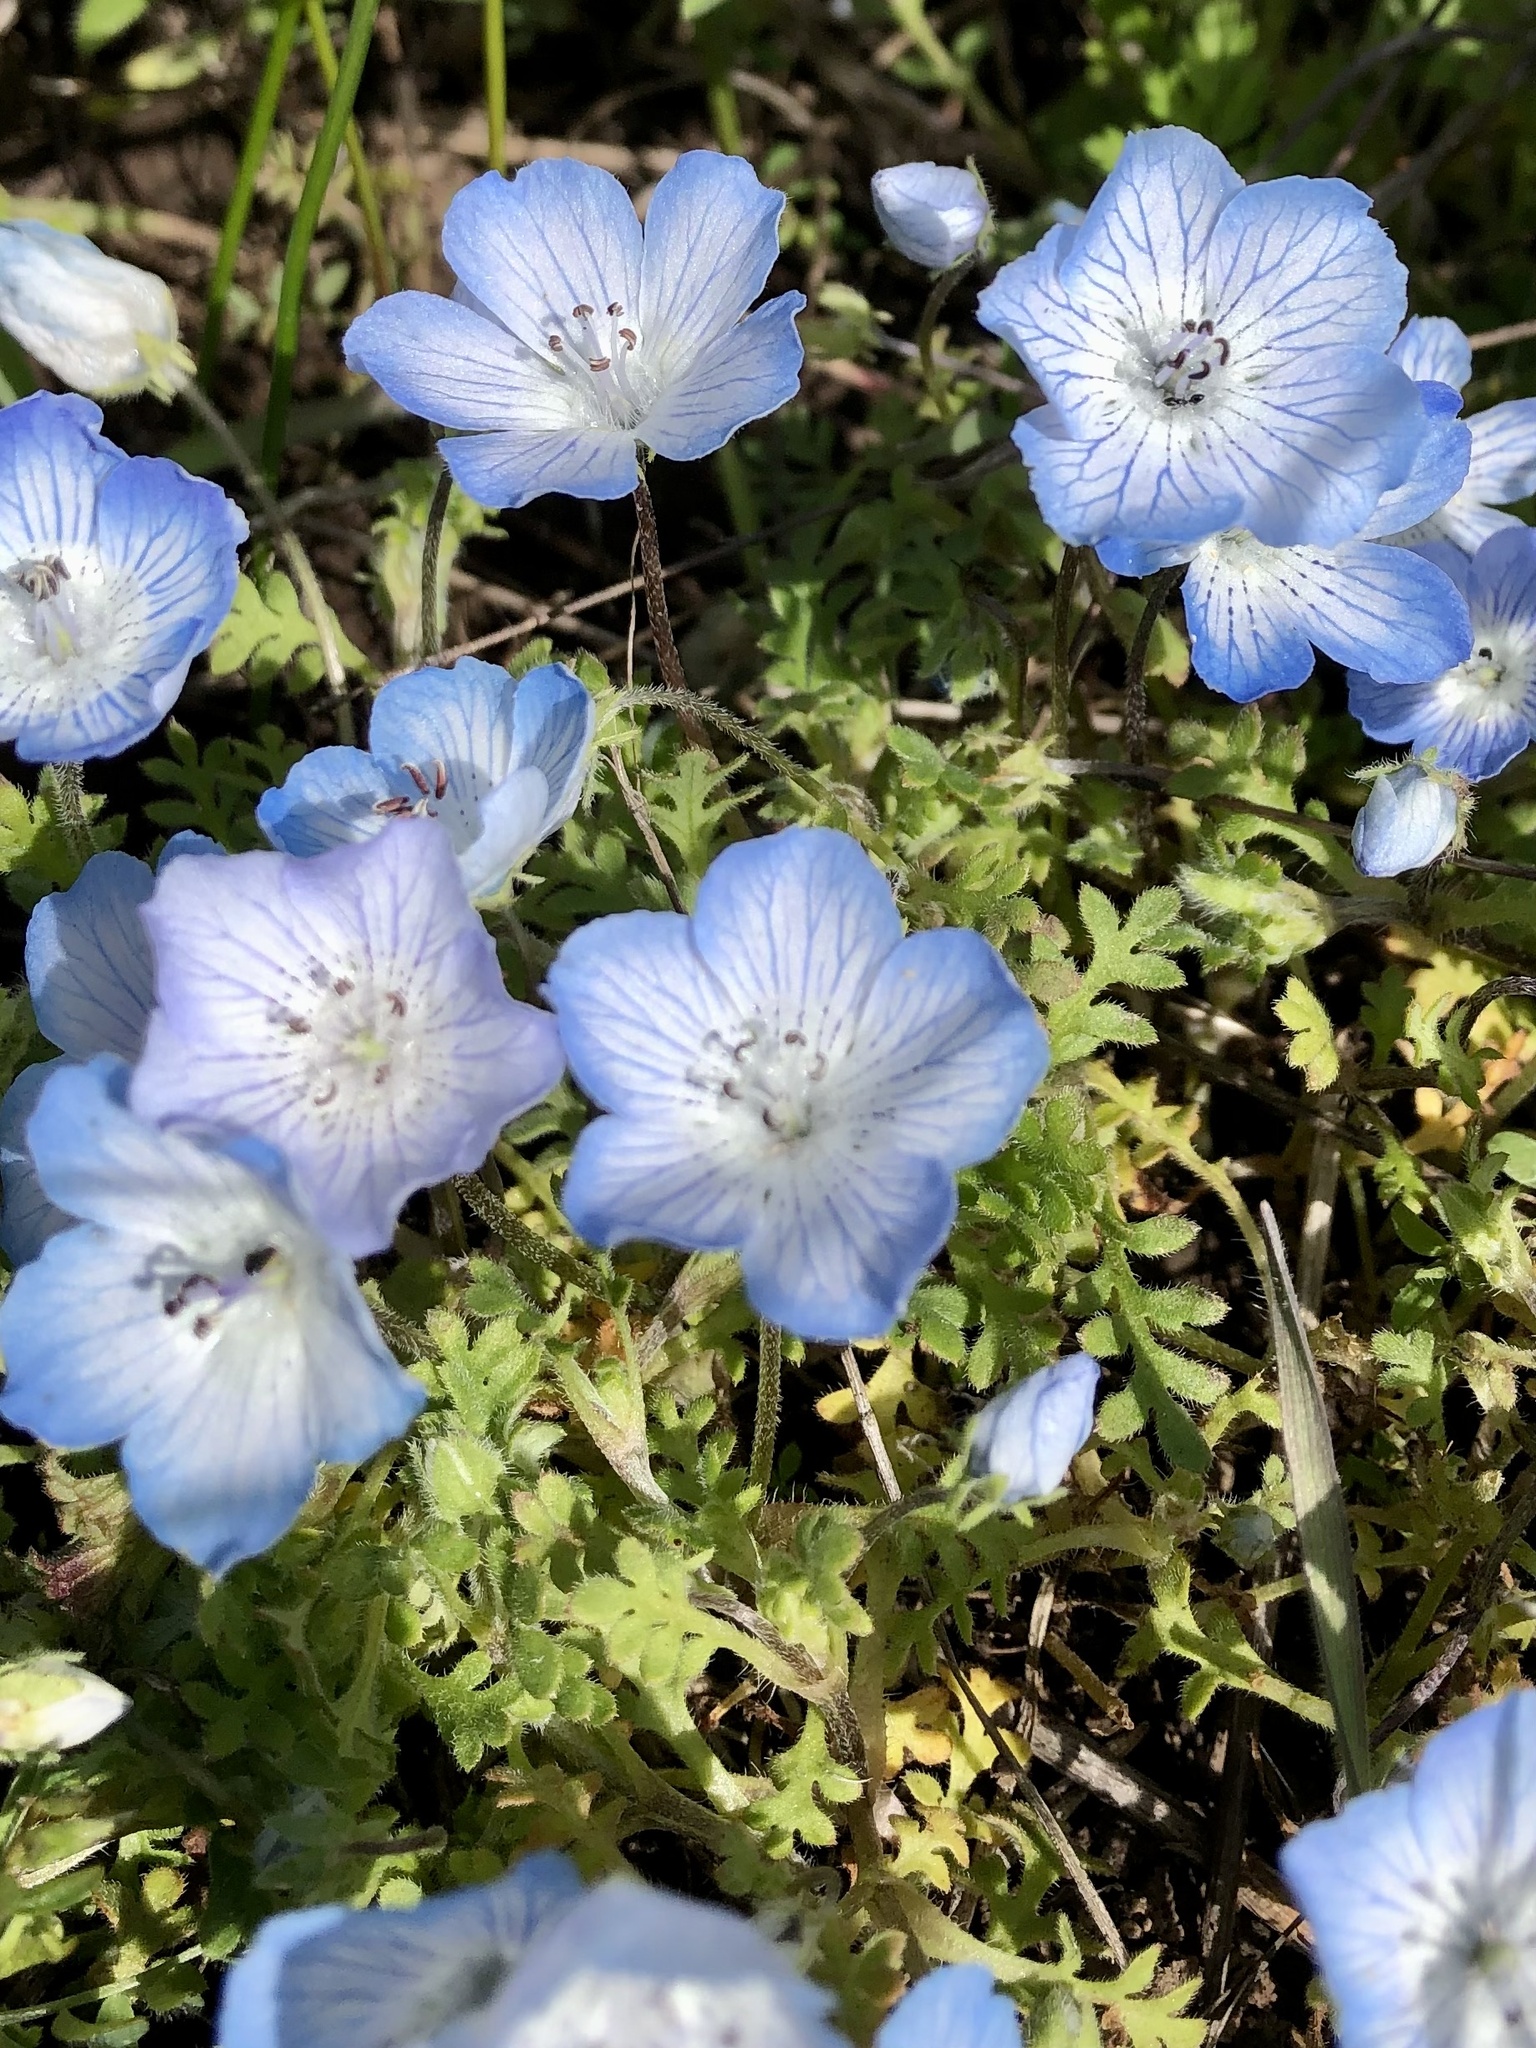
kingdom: Plantae
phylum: Tracheophyta
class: Magnoliopsida
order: Boraginales
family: Hydrophyllaceae
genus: Nemophila
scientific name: Nemophila menziesii
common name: Baby's-blue-eyes
